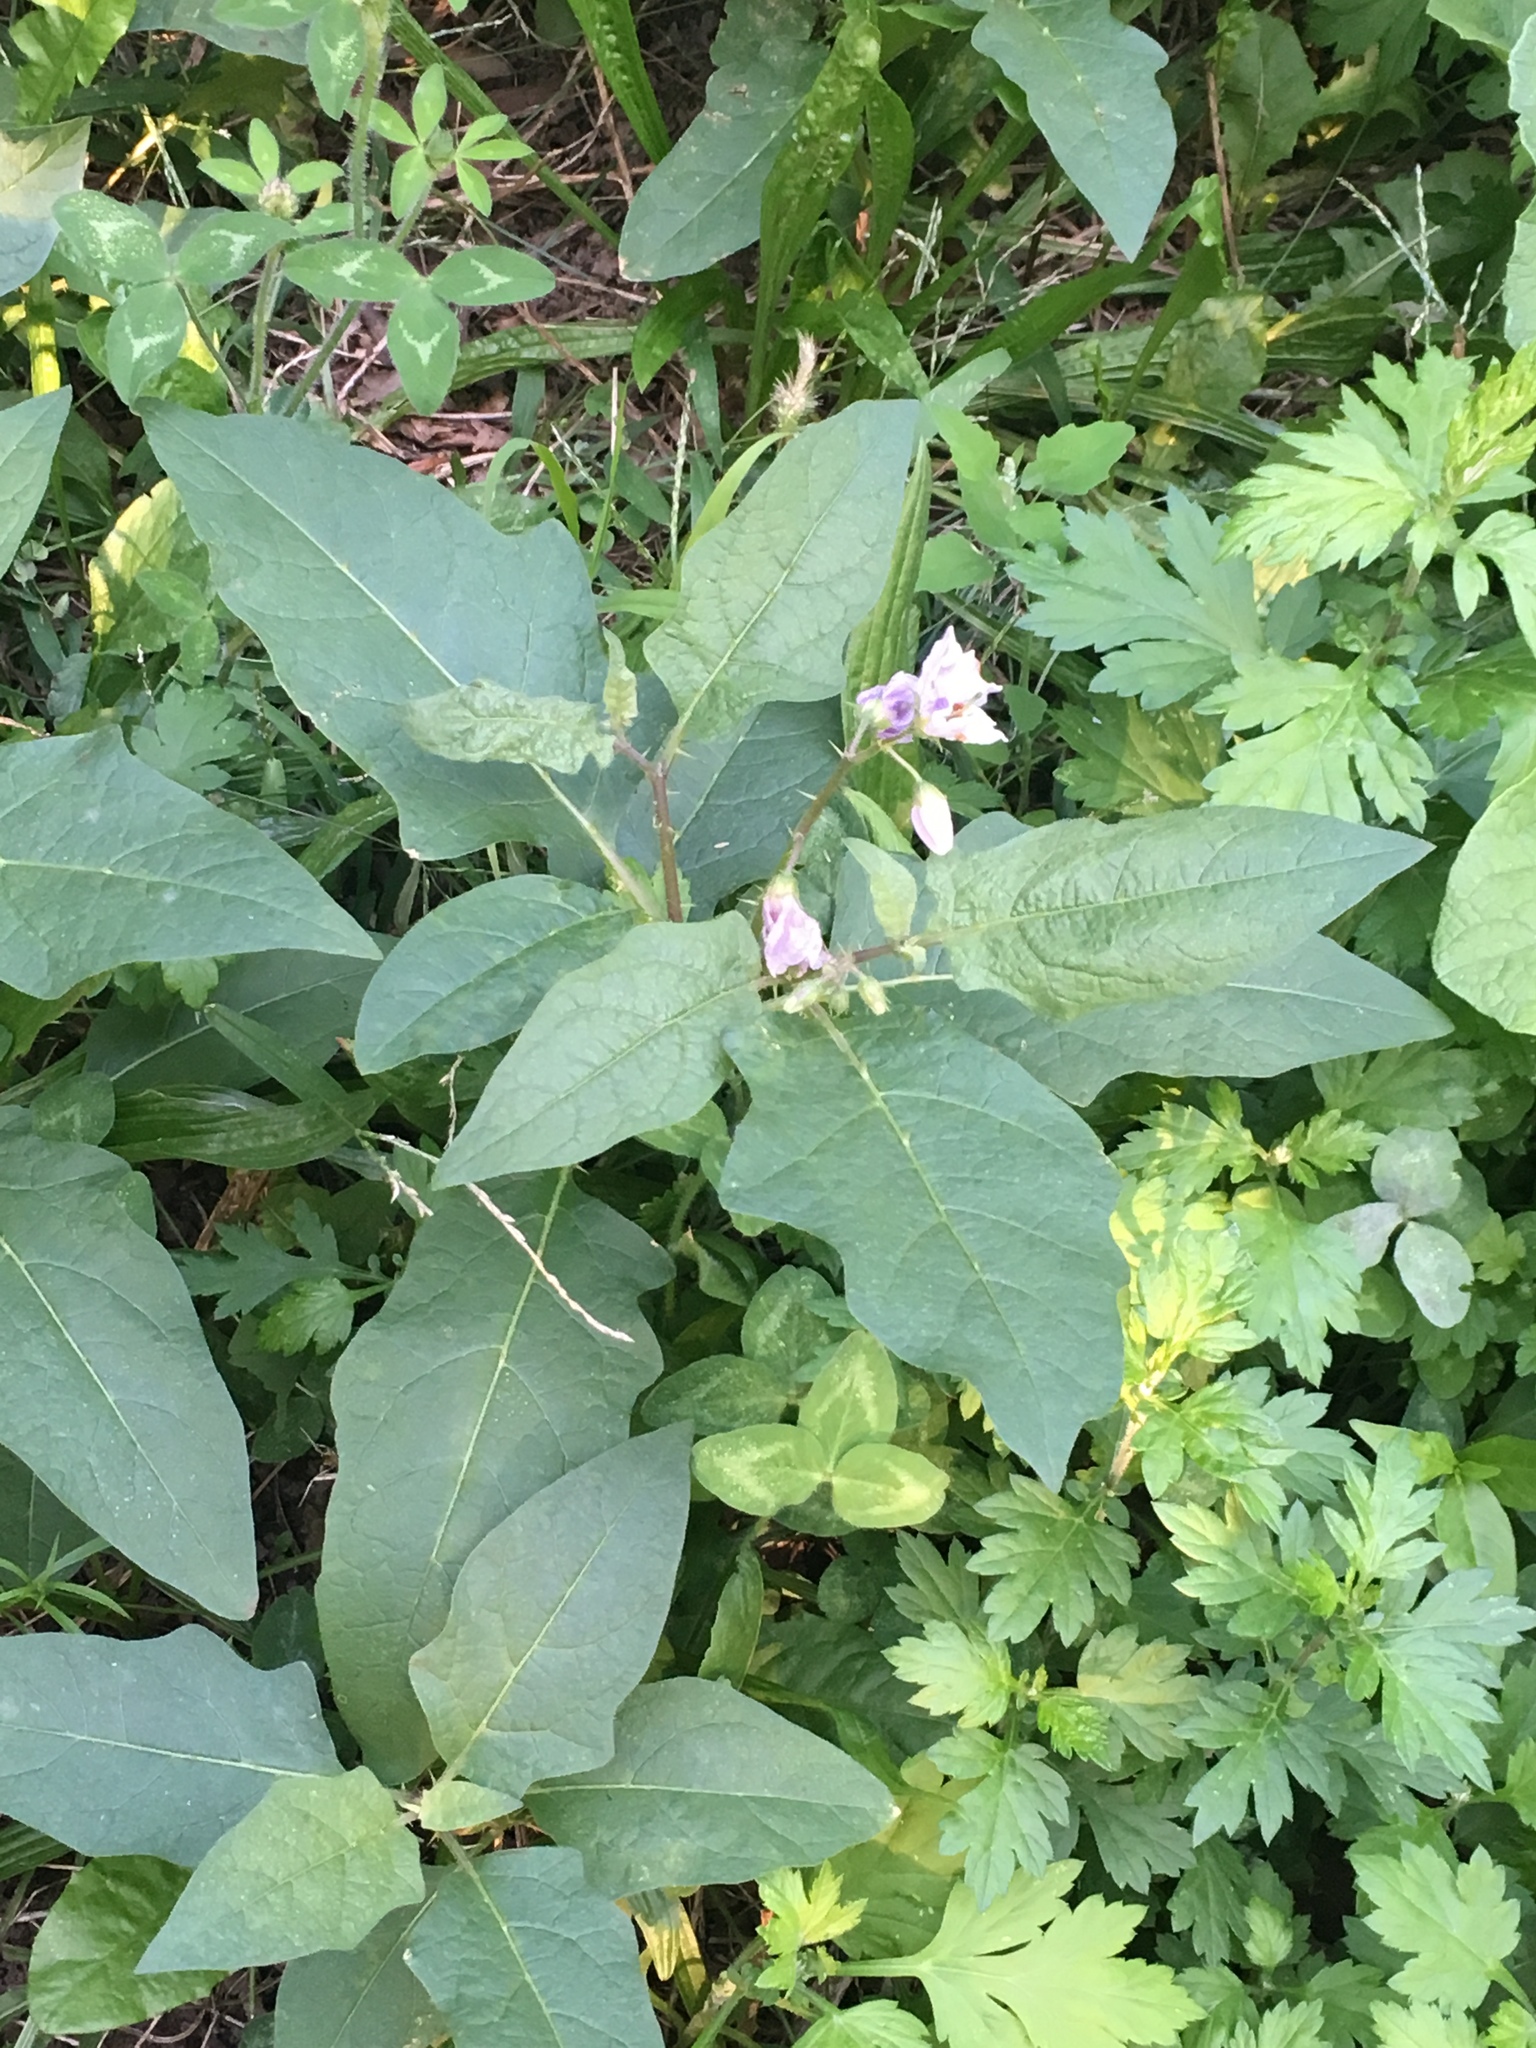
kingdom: Plantae
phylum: Tracheophyta
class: Magnoliopsida
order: Solanales
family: Solanaceae
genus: Solanum
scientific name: Solanum carolinense
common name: Horse-nettle
